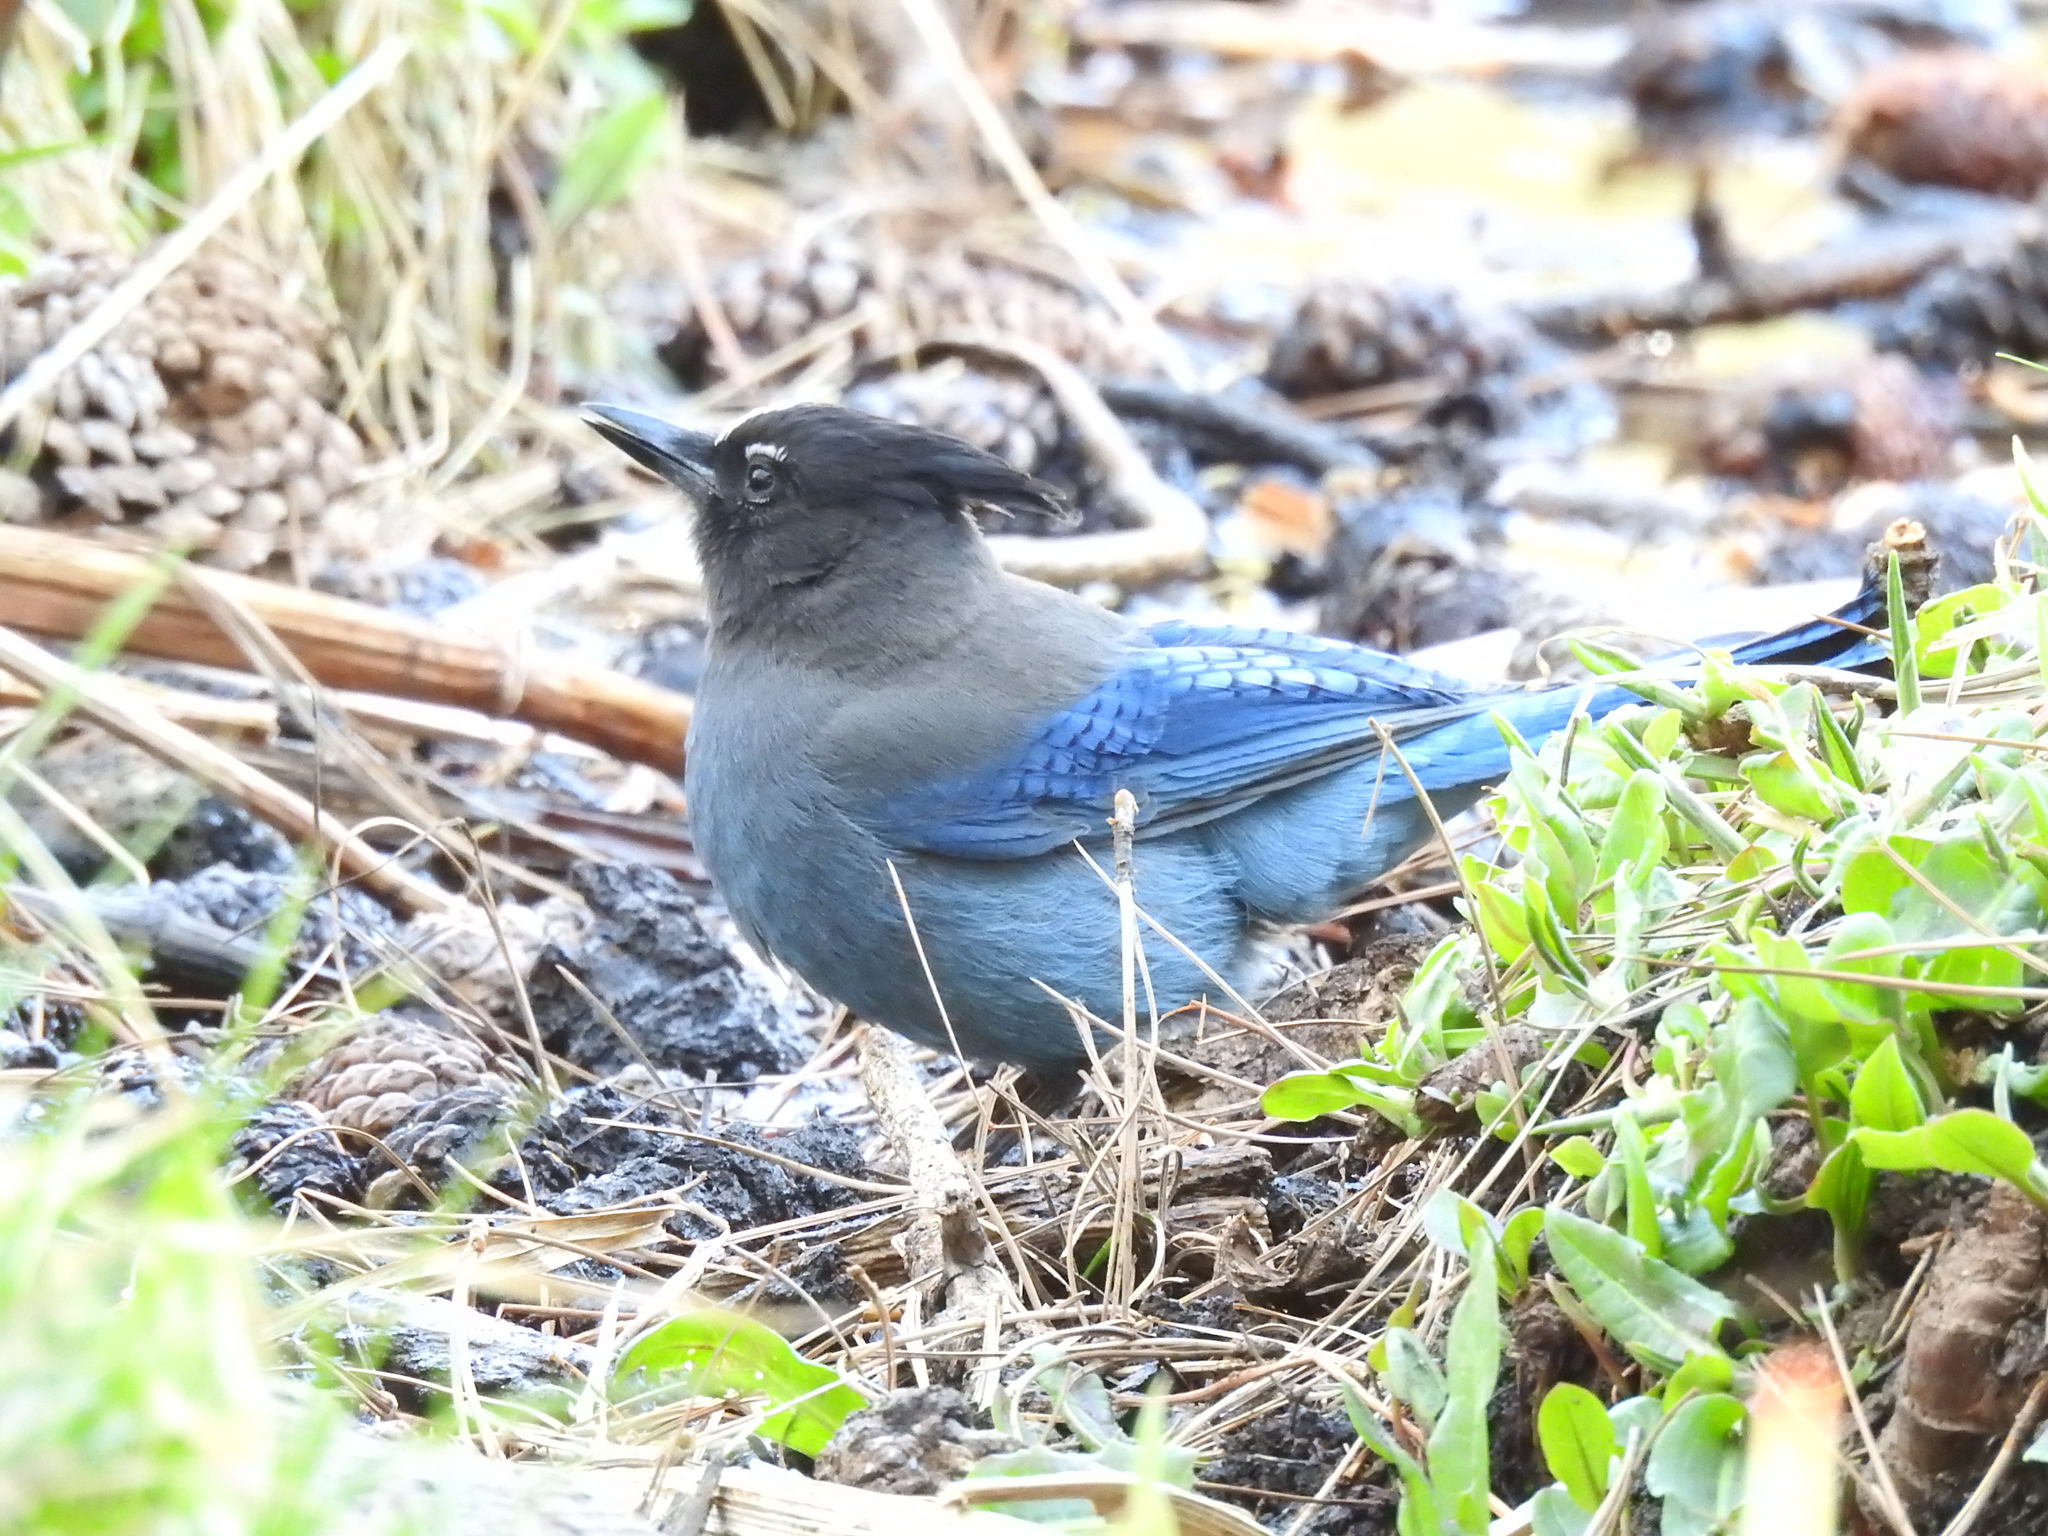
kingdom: Animalia
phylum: Chordata
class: Aves
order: Passeriformes
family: Corvidae
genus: Cyanocitta
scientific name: Cyanocitta stelleri
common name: Steller's jay
